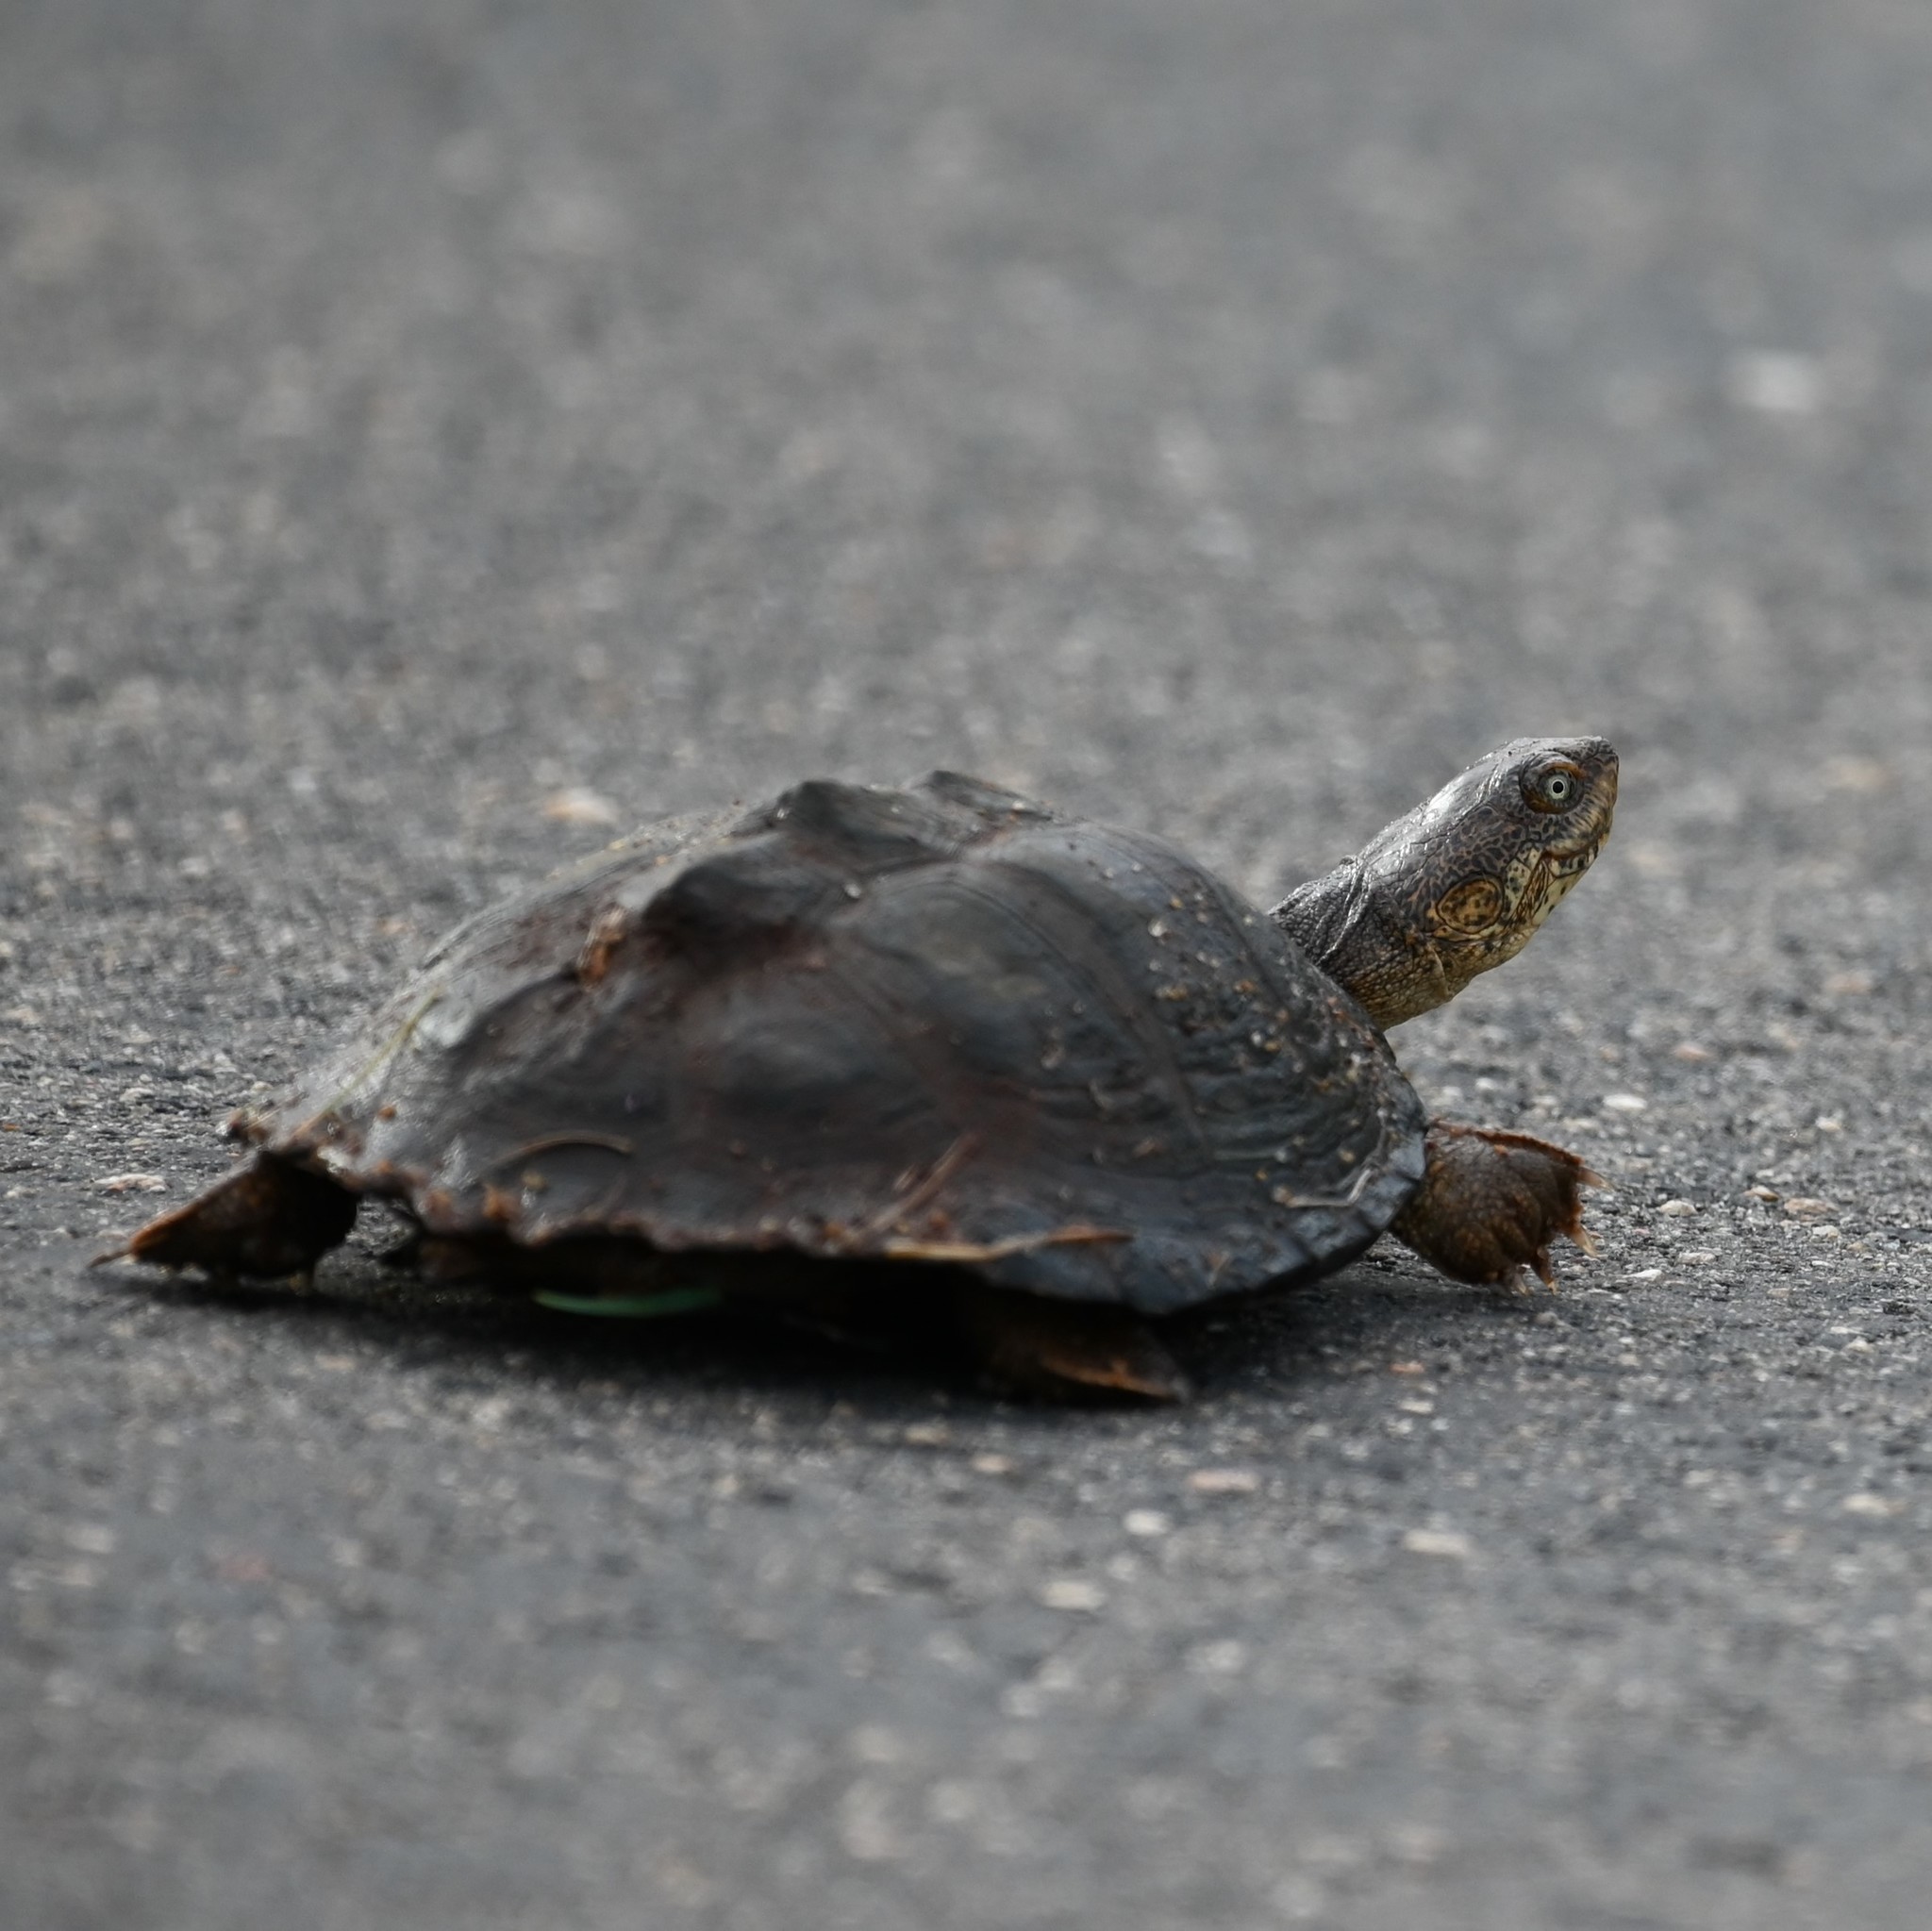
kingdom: Animalia
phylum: Chordata
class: Testudines
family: Pelomedusidae
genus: Pelusios
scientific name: Pelusios sinuatus
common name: Serrated hinged terrapin
